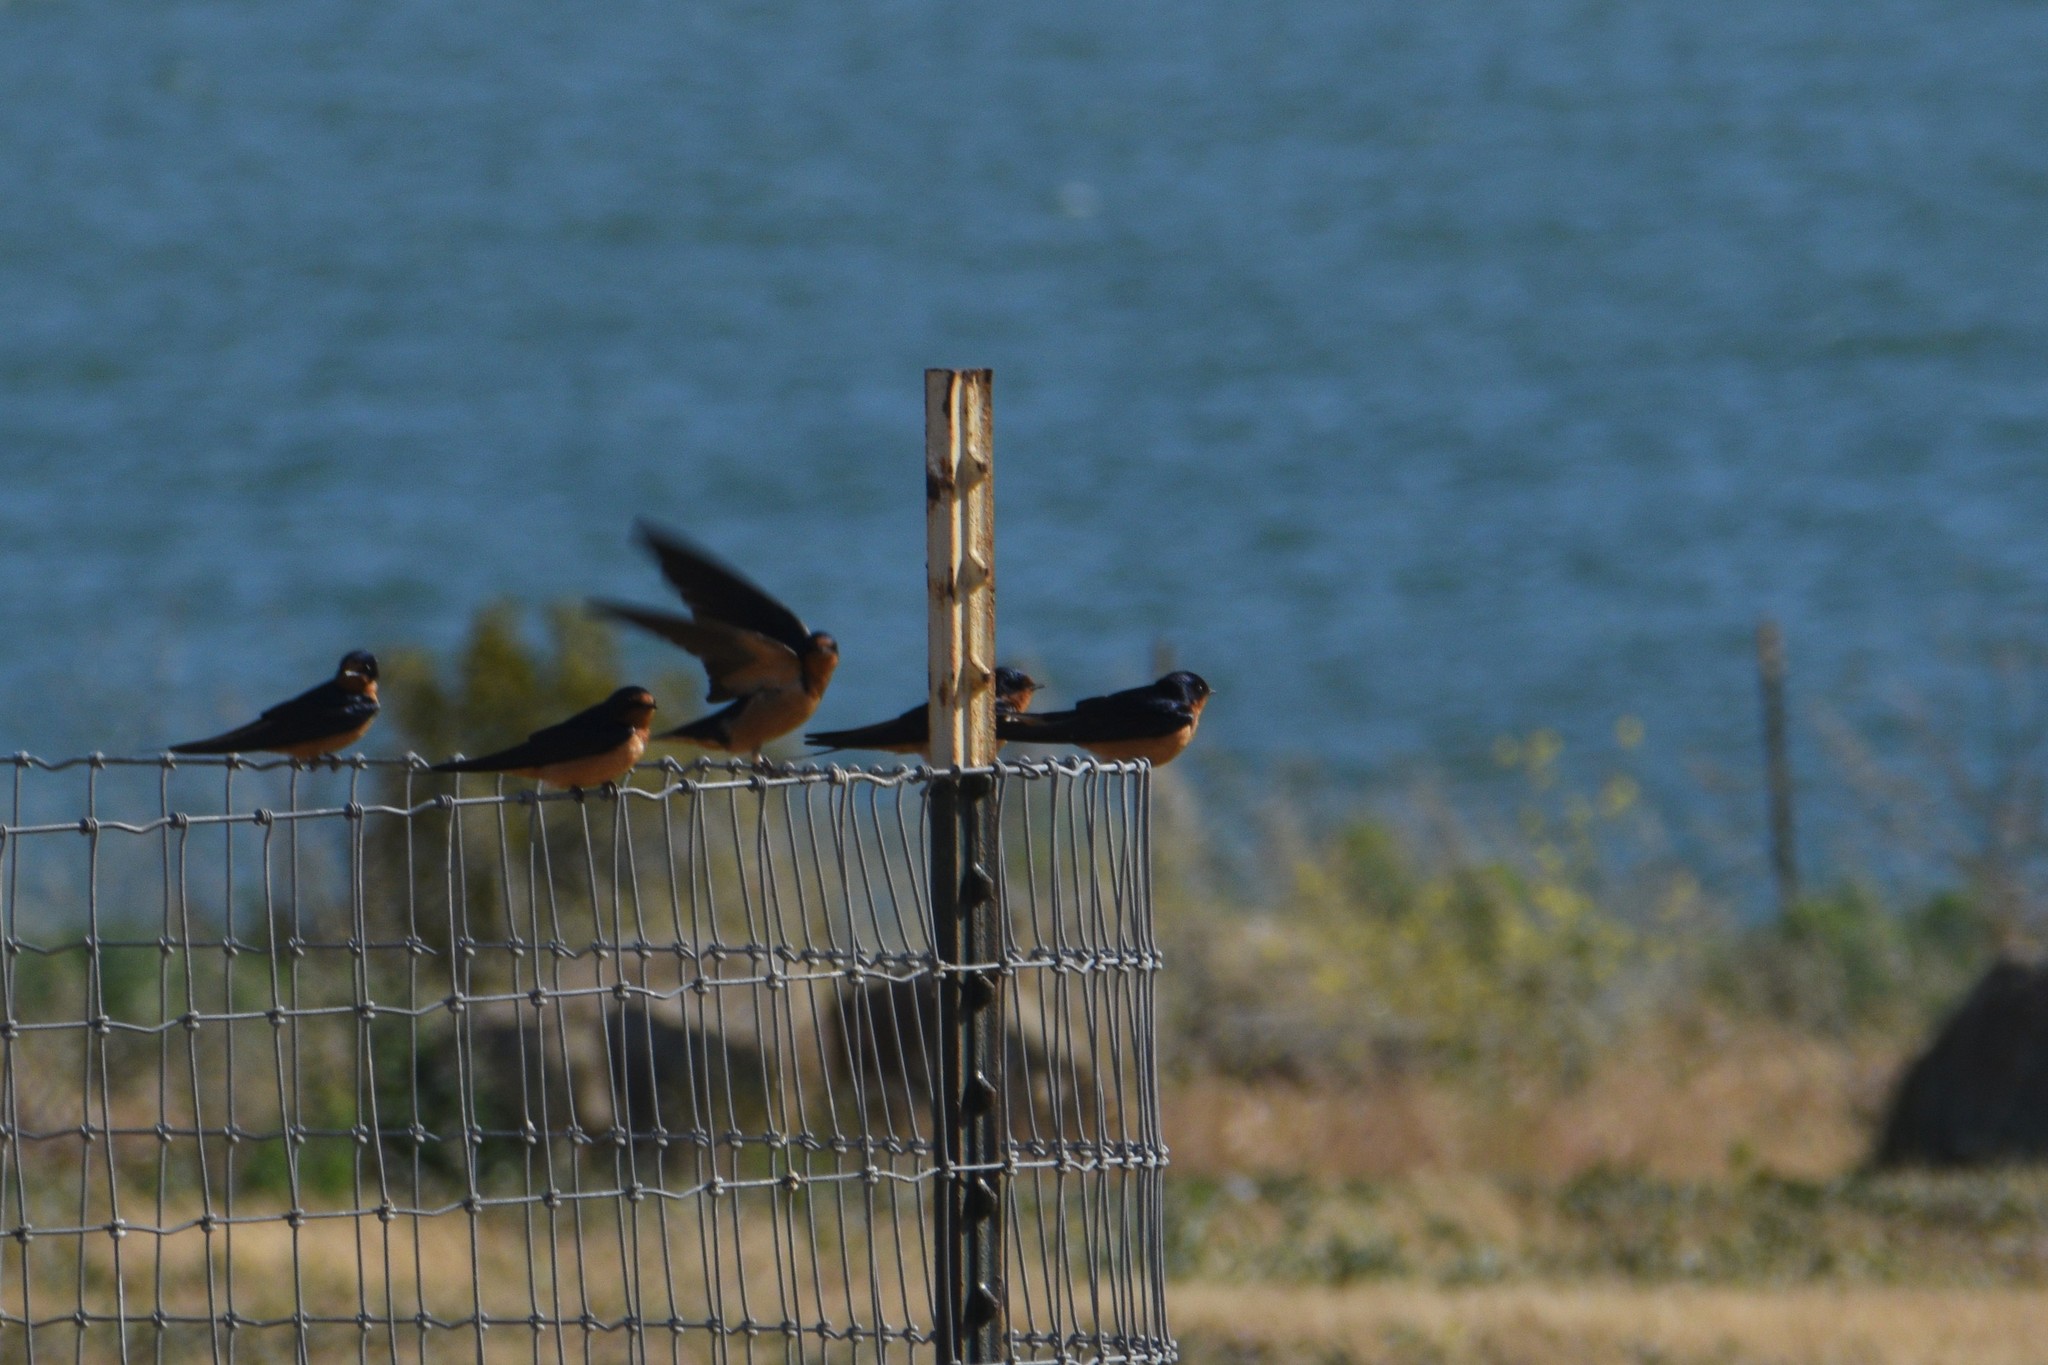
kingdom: Animalia
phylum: Chordata
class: Aves
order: Passeriformes
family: Hirundinidae
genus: Hirundo
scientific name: Hirundo rustica
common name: Barn swallow
